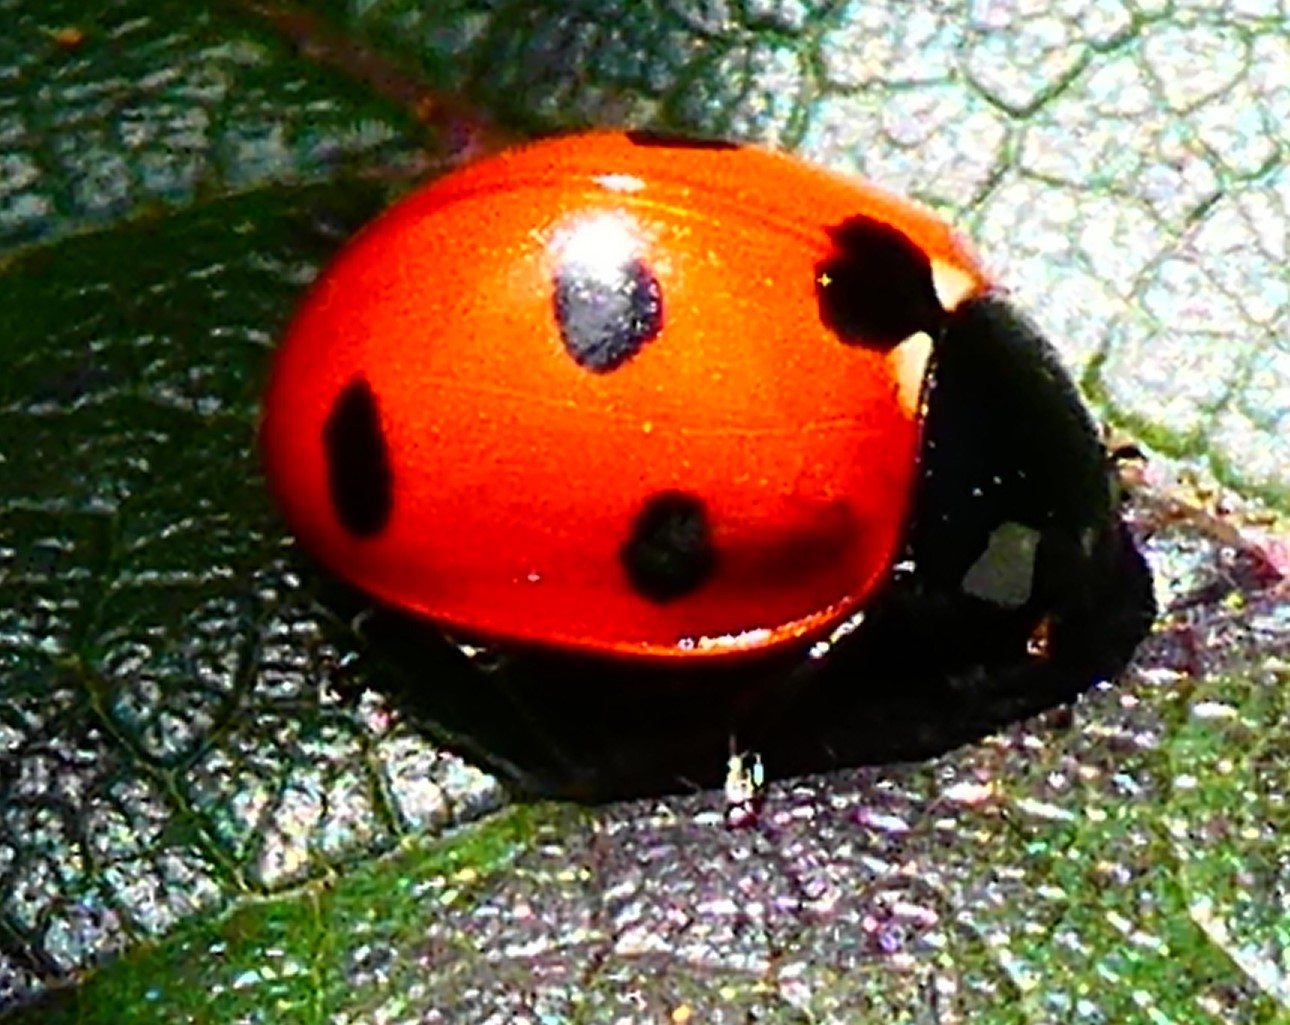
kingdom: Animalia
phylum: Arthropoda
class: Insecta
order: Coleoptera
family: Coccinellidae
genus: Coccinella
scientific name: Coccinella septempunctata
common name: Sevenspotted lady beetle
